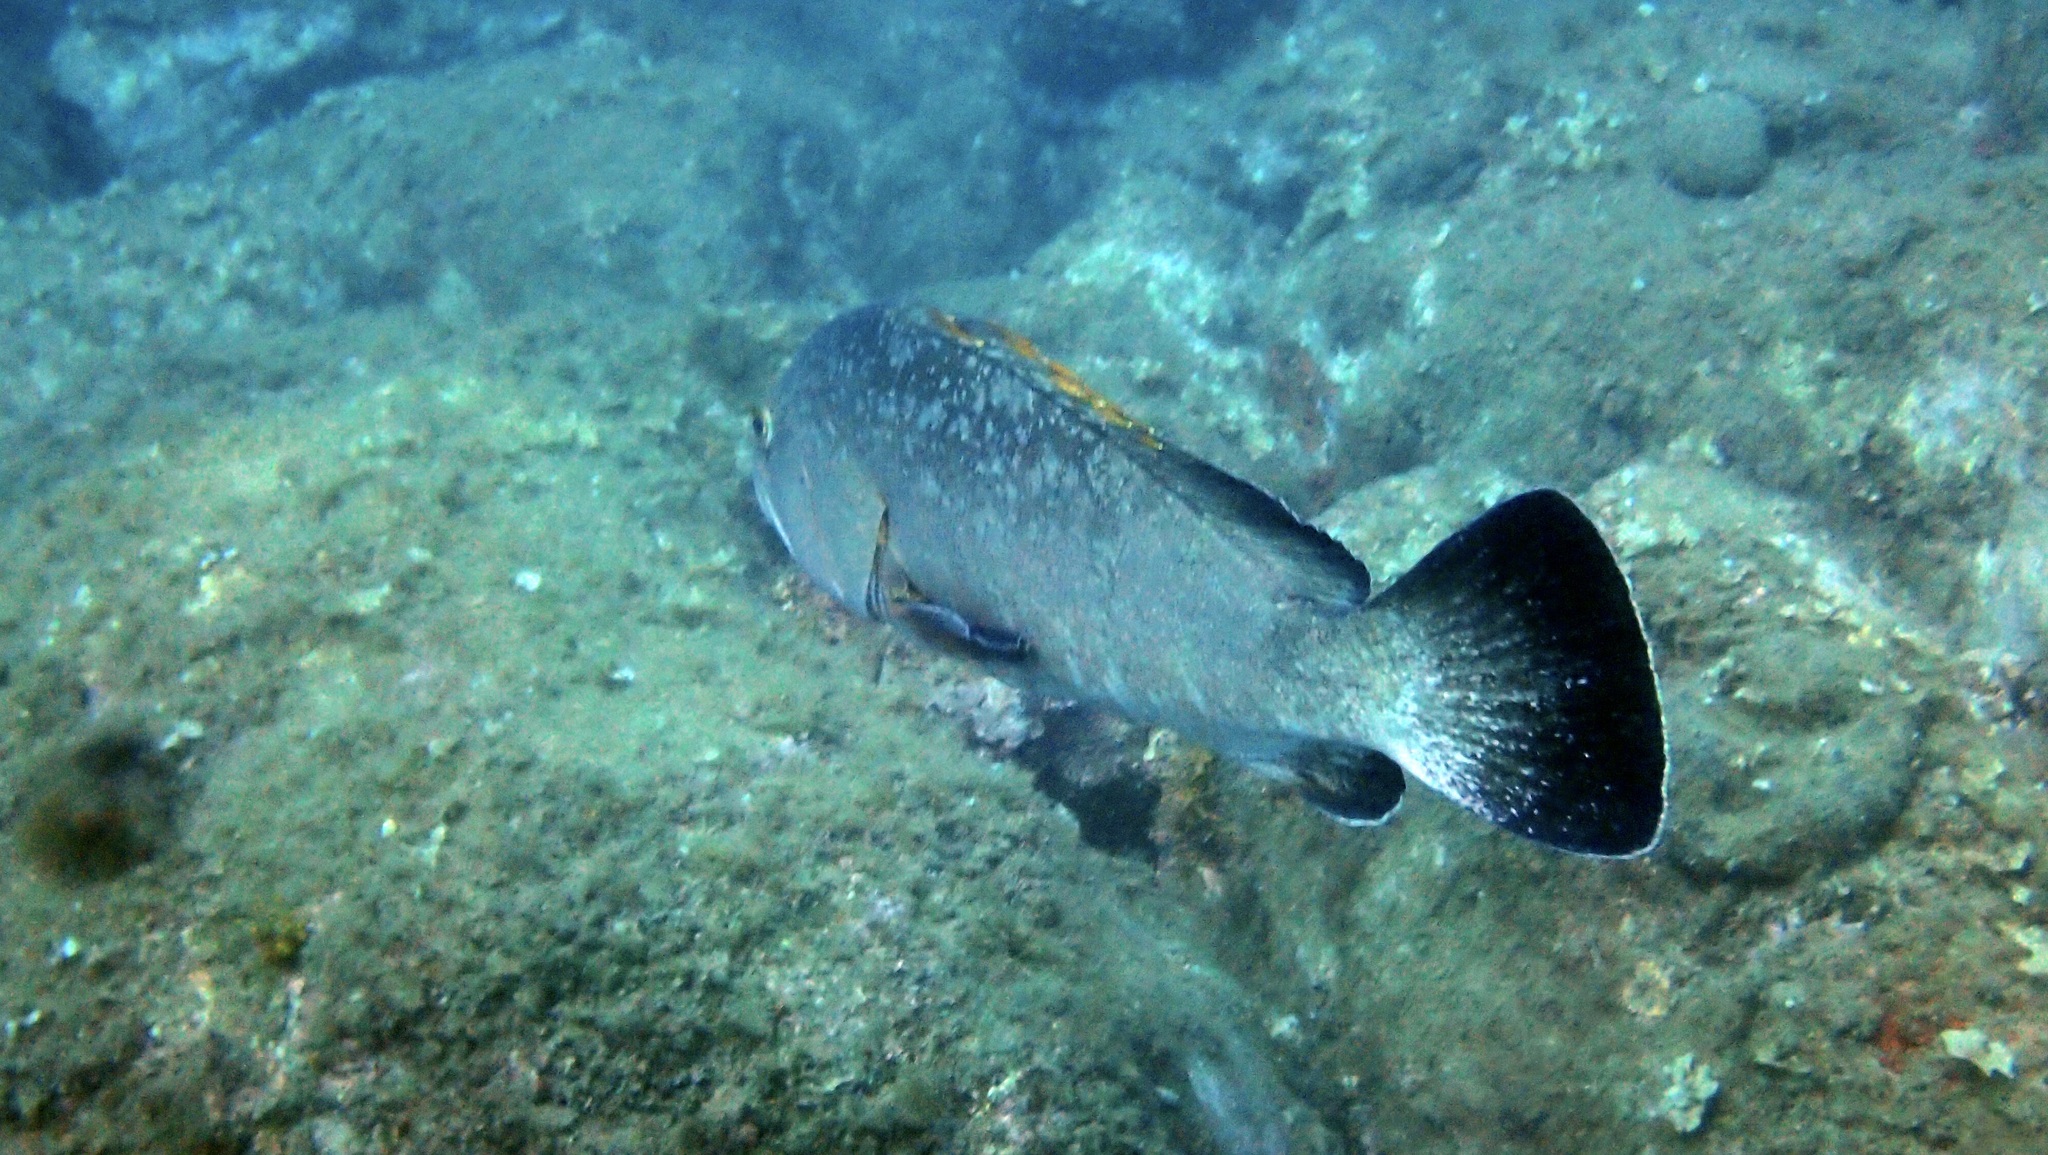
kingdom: Animalia
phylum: Chordata
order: Perciformes
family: Serranidae
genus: Epinephelus
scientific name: Epinephelus marginatus
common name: Dusky grouper
